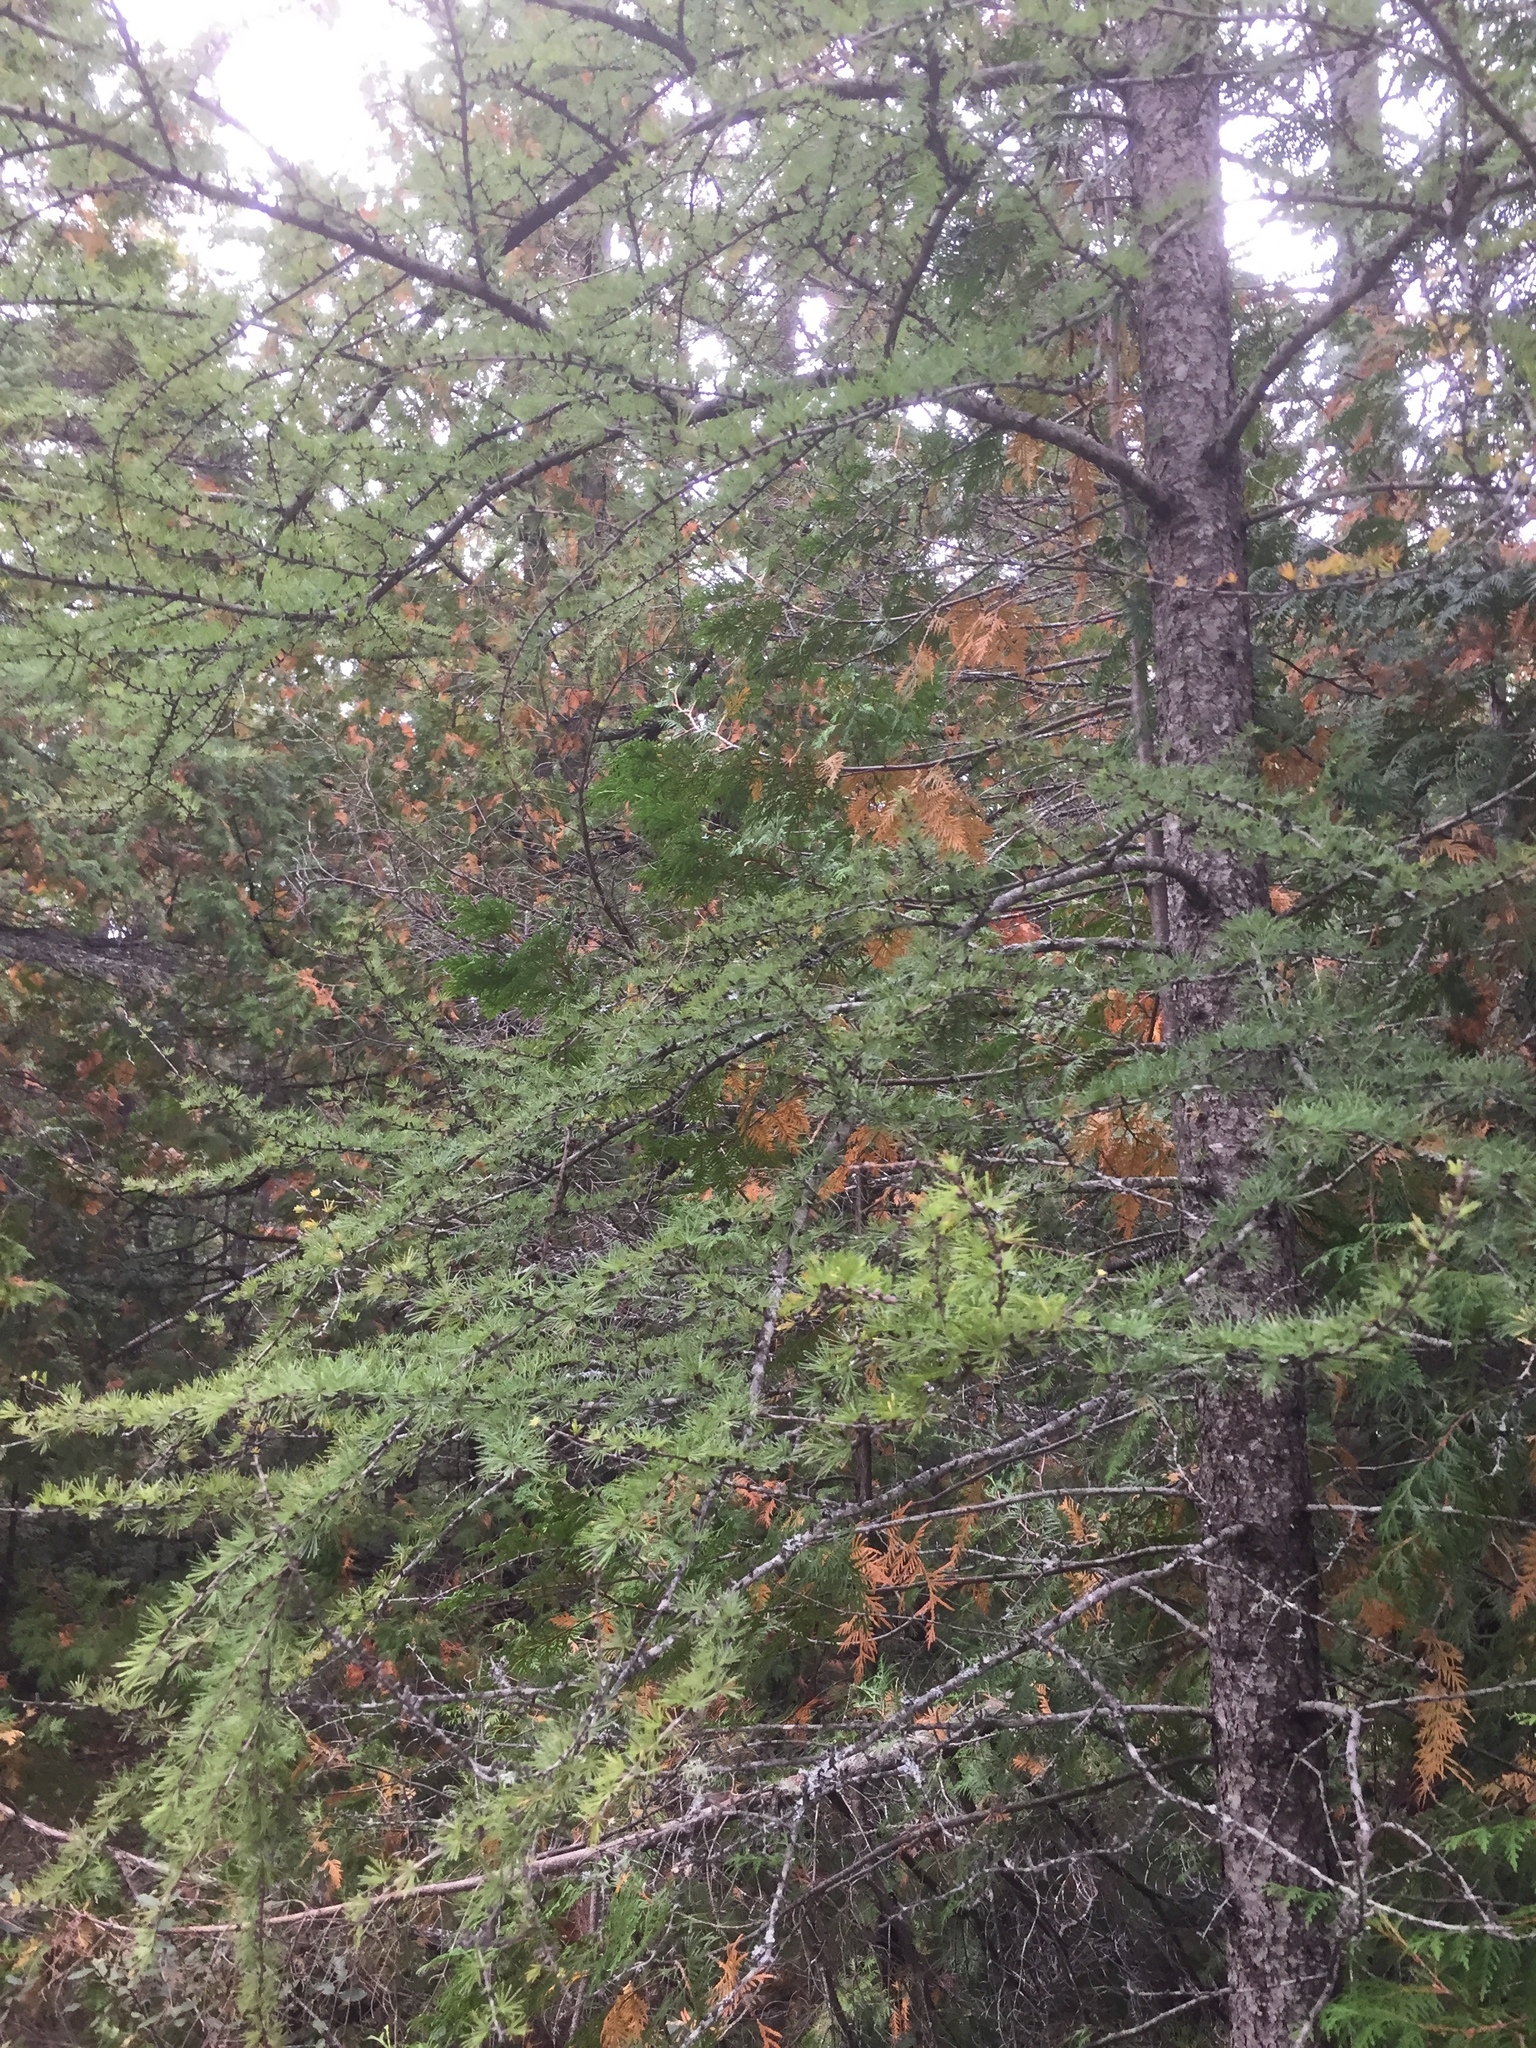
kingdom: Plantae
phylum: Tracheophyta
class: Pinopsida
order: Pinales
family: Pinaceae
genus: Larix
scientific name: Larix laricina
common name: American larch
